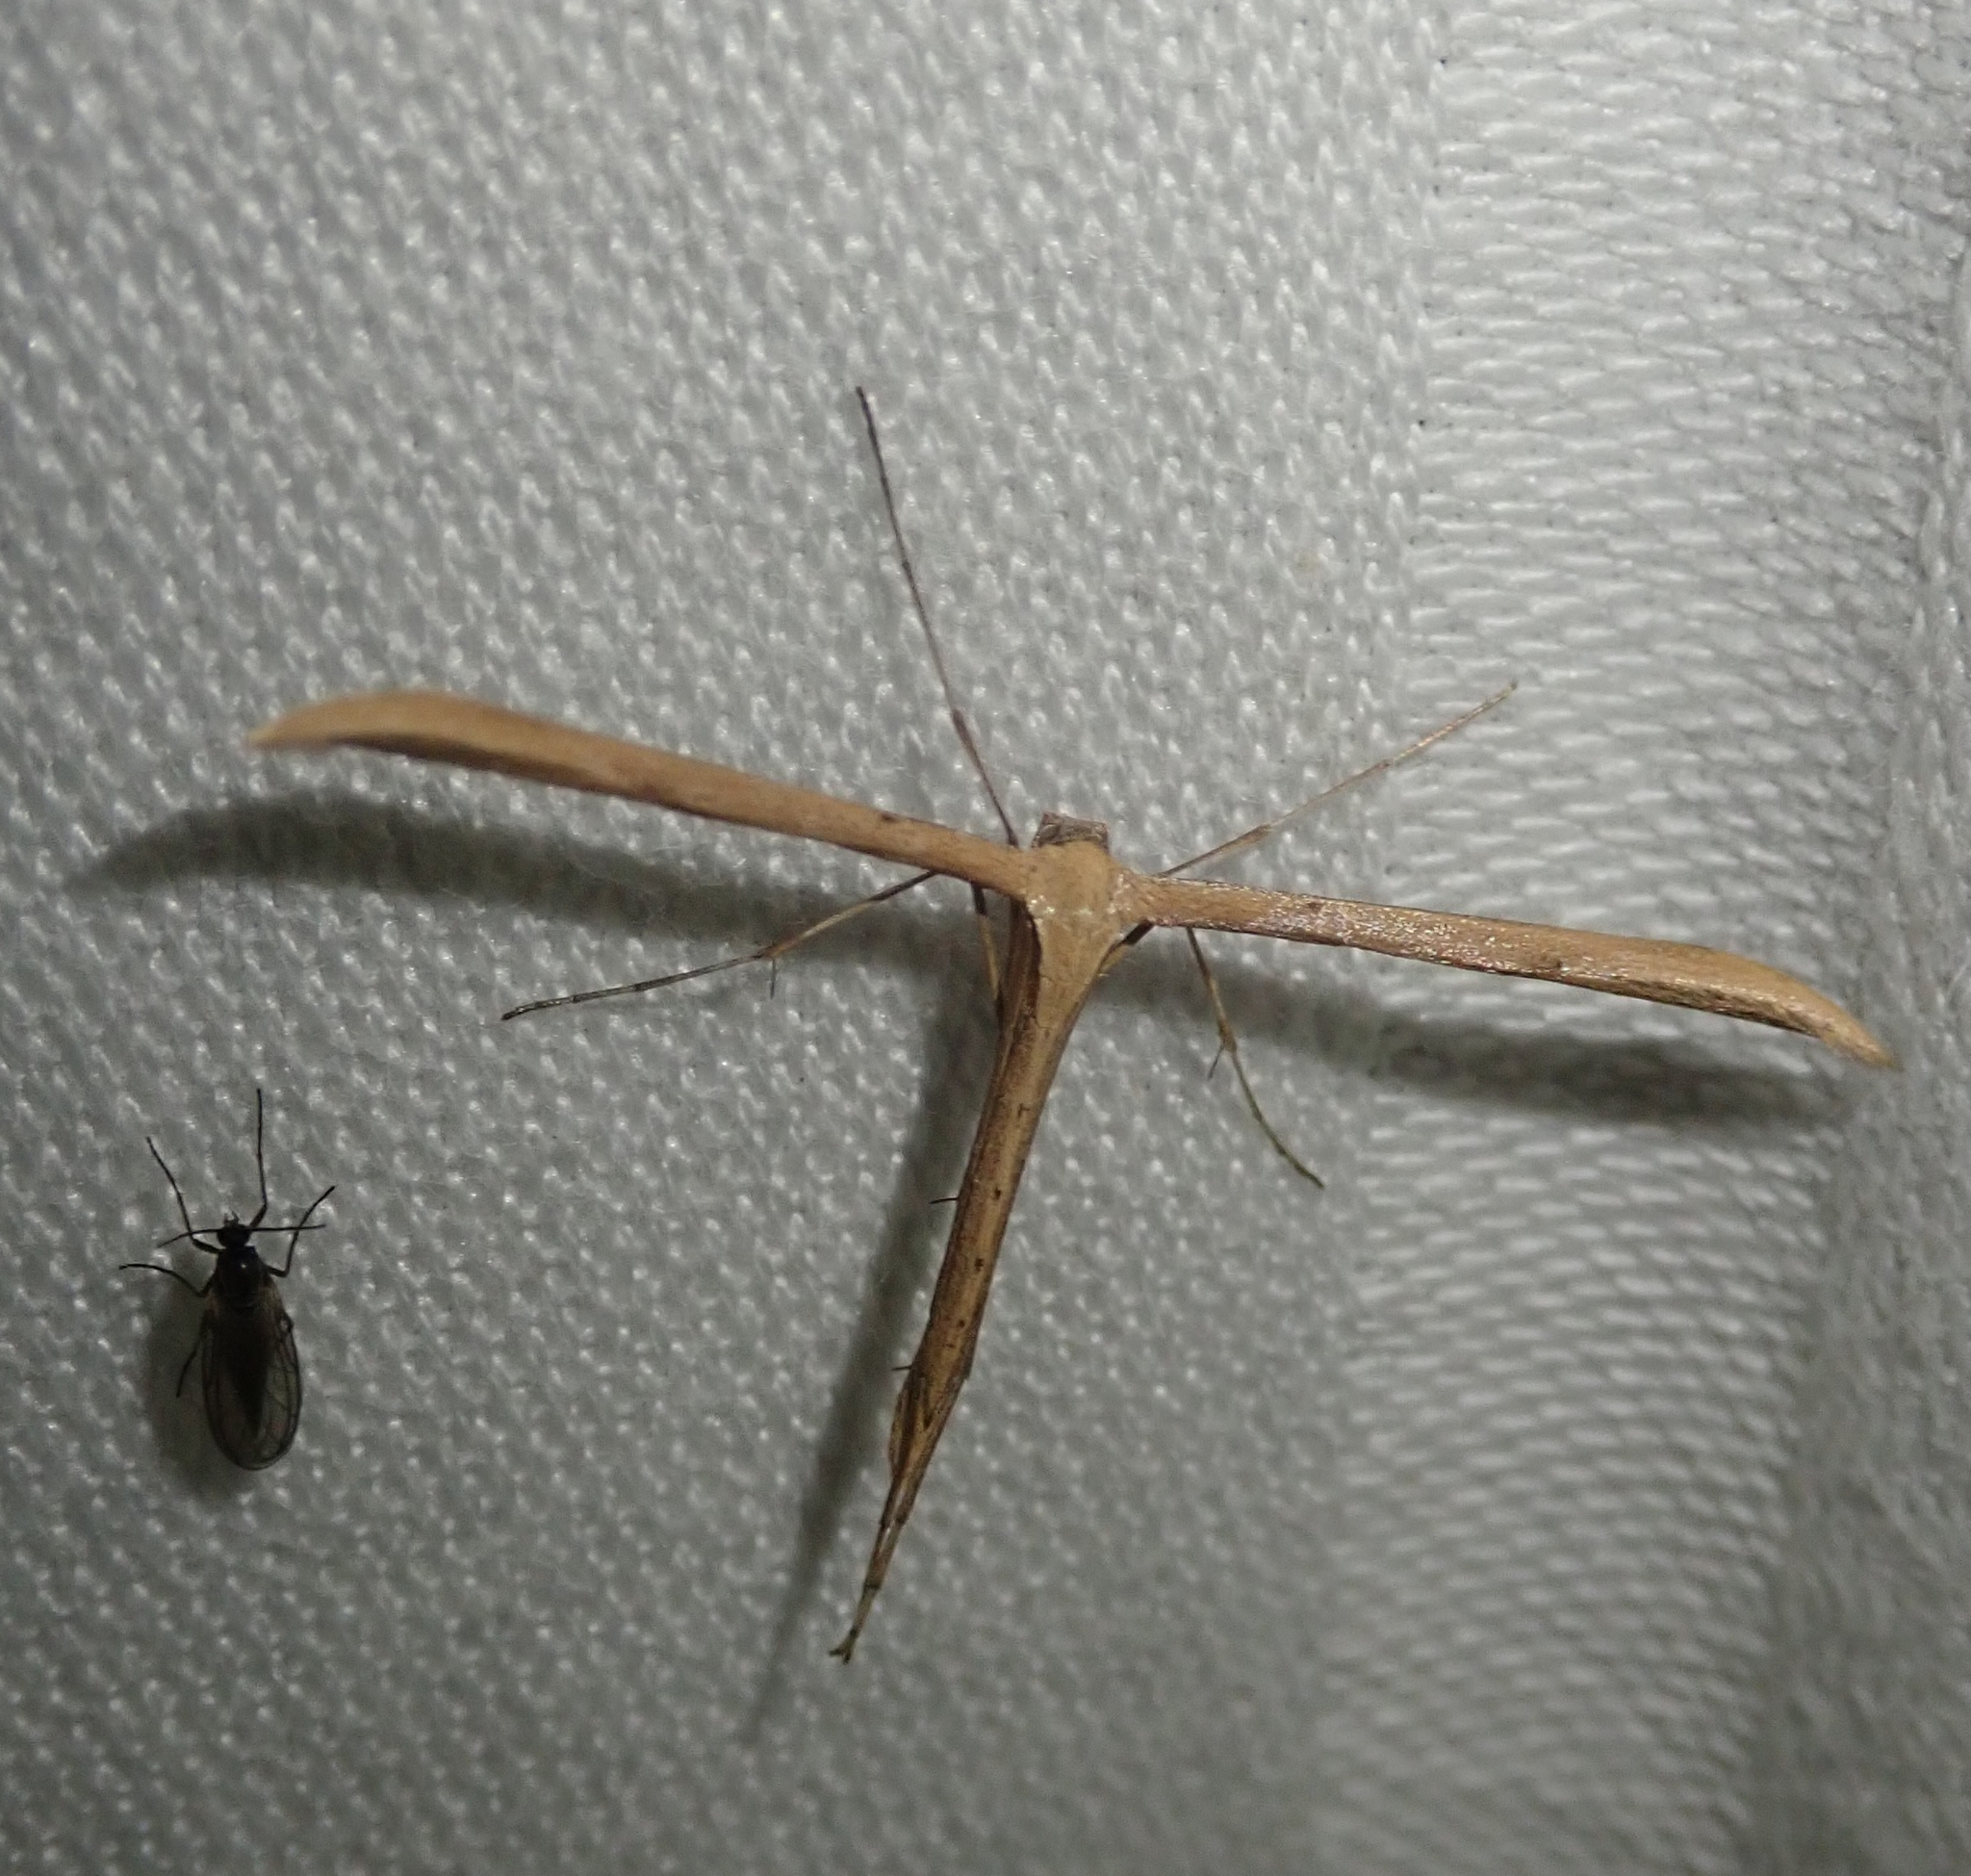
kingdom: Animalia
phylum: Arthropoda
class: Insecta
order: Lepidoptera
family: Pterophoridae
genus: Emmelina
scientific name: Emmelina monodactyla
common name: Common plume
